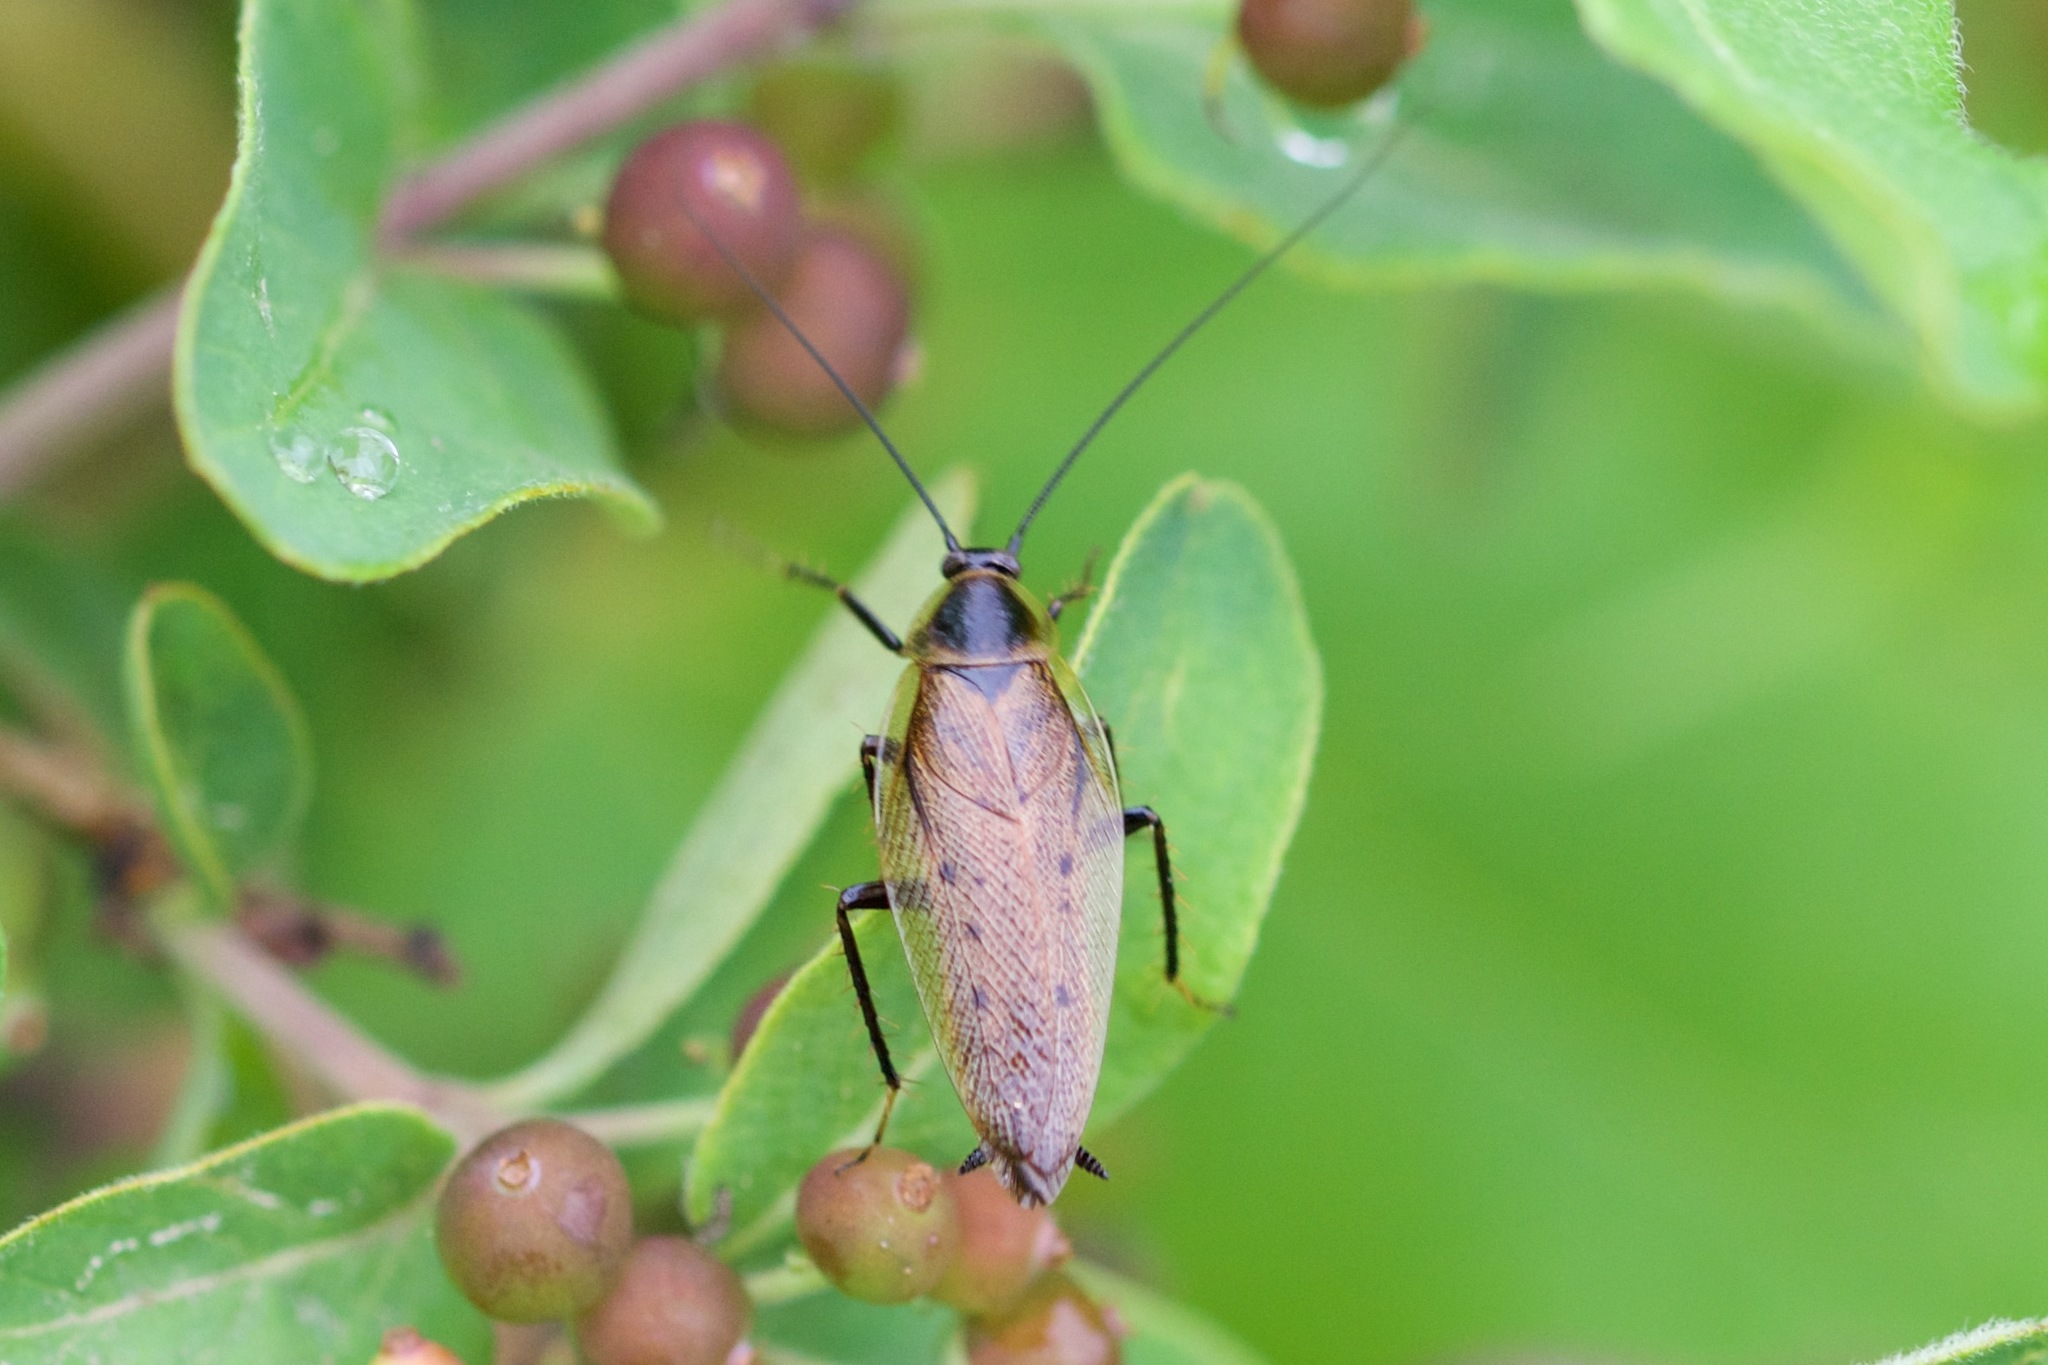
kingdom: Animalia
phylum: Arthropoda
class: Insecta
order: Blattodea
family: Ectobiidae
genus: Ectobius
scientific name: Ectobius lapponicus
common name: Dusky cockroach
